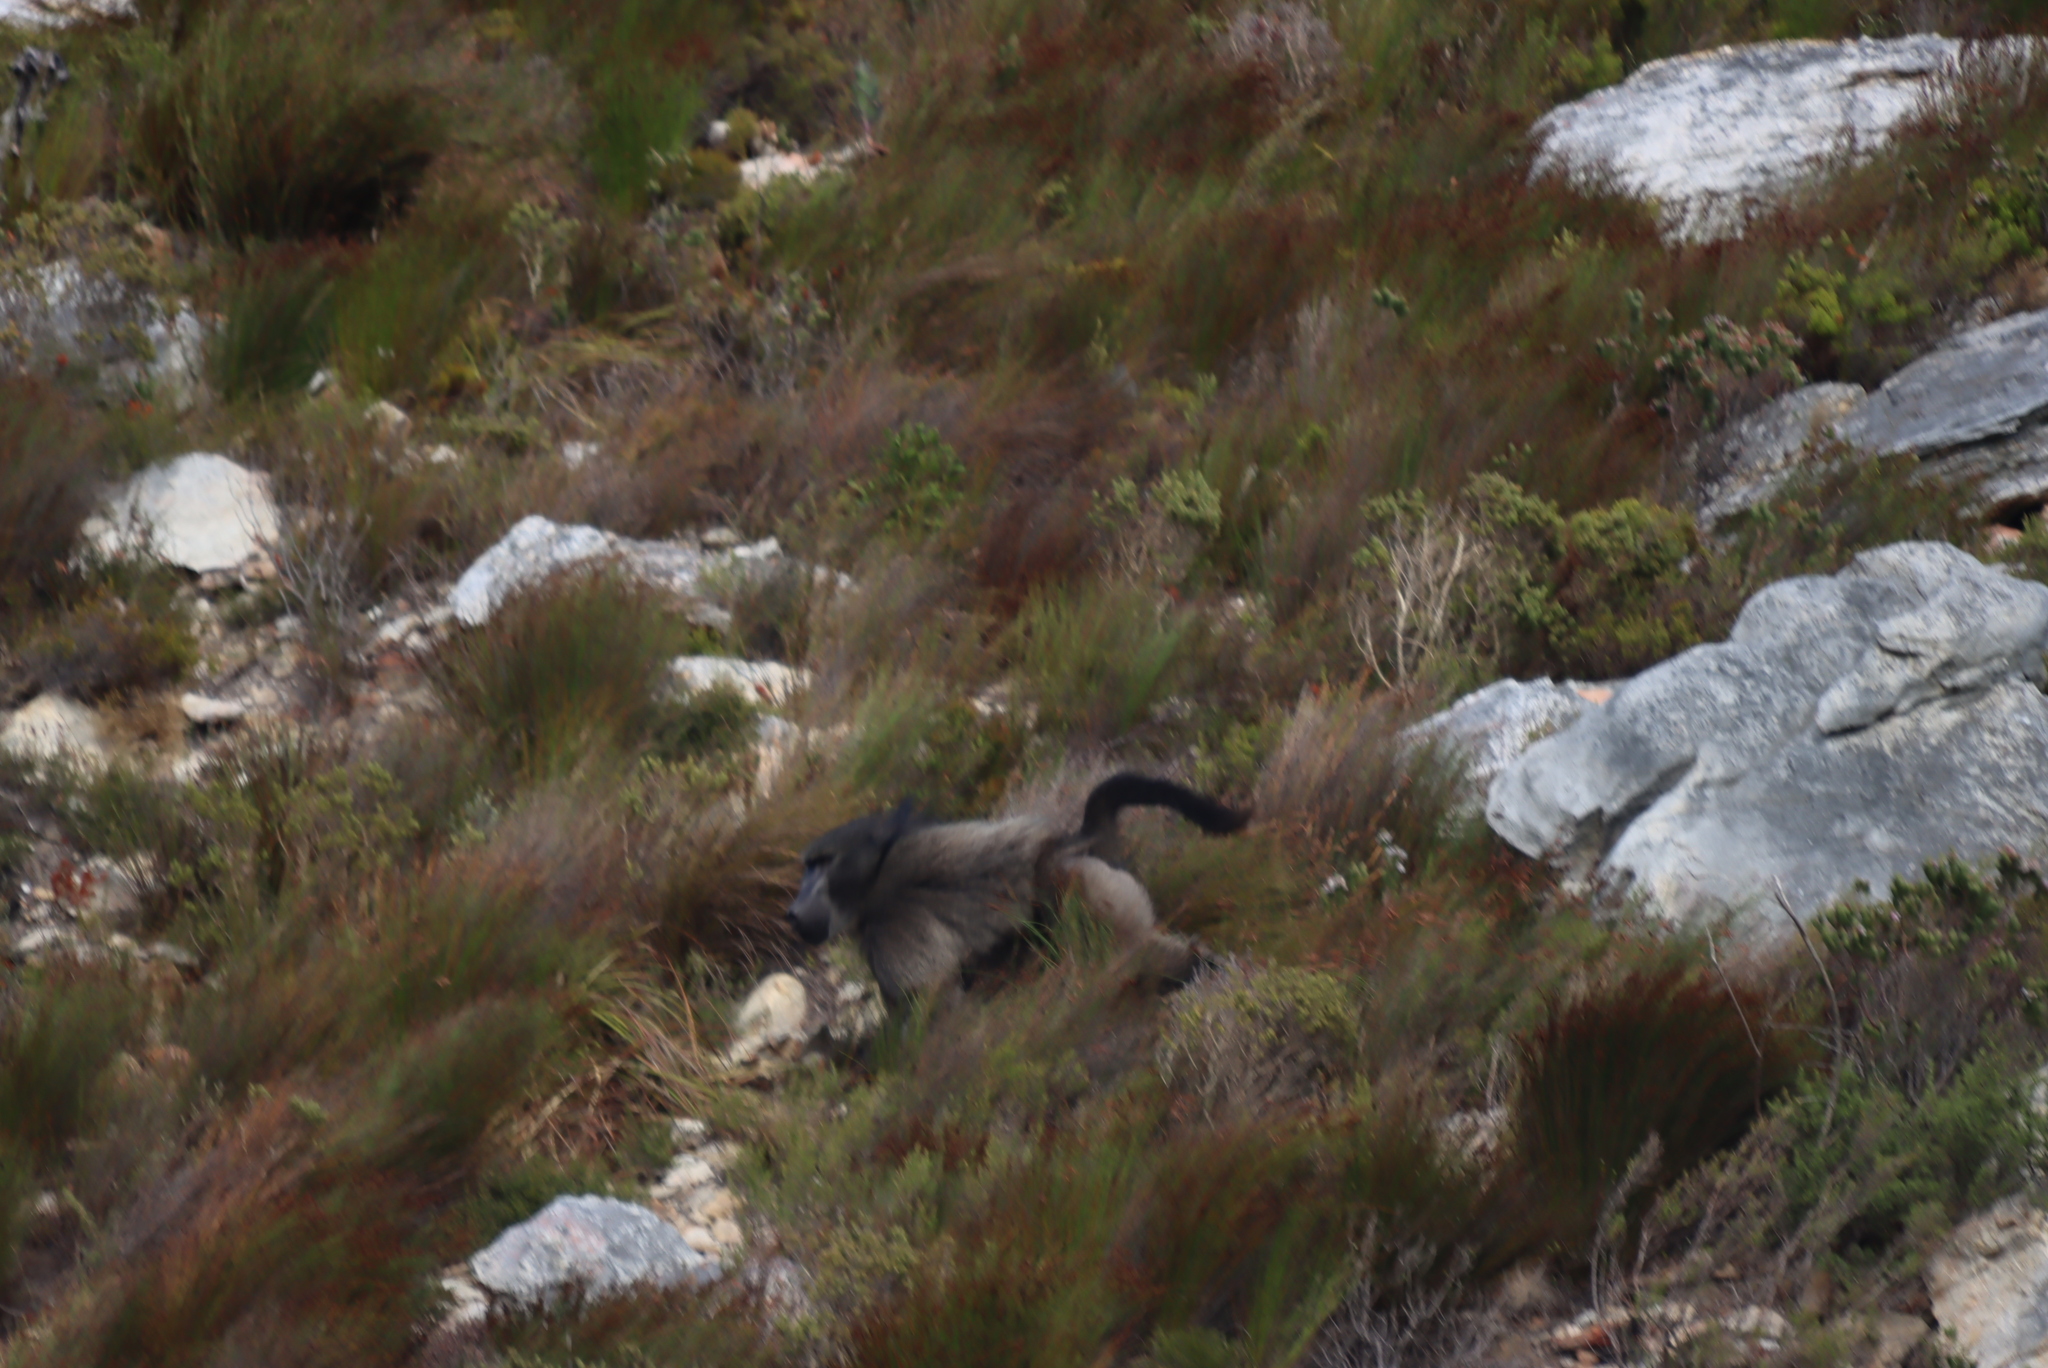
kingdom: Animalia
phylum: Chordata
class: Mammalia
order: Primates
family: Cercopithecidae
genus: Papio
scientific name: Papio ursinus
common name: Chacma baboon
